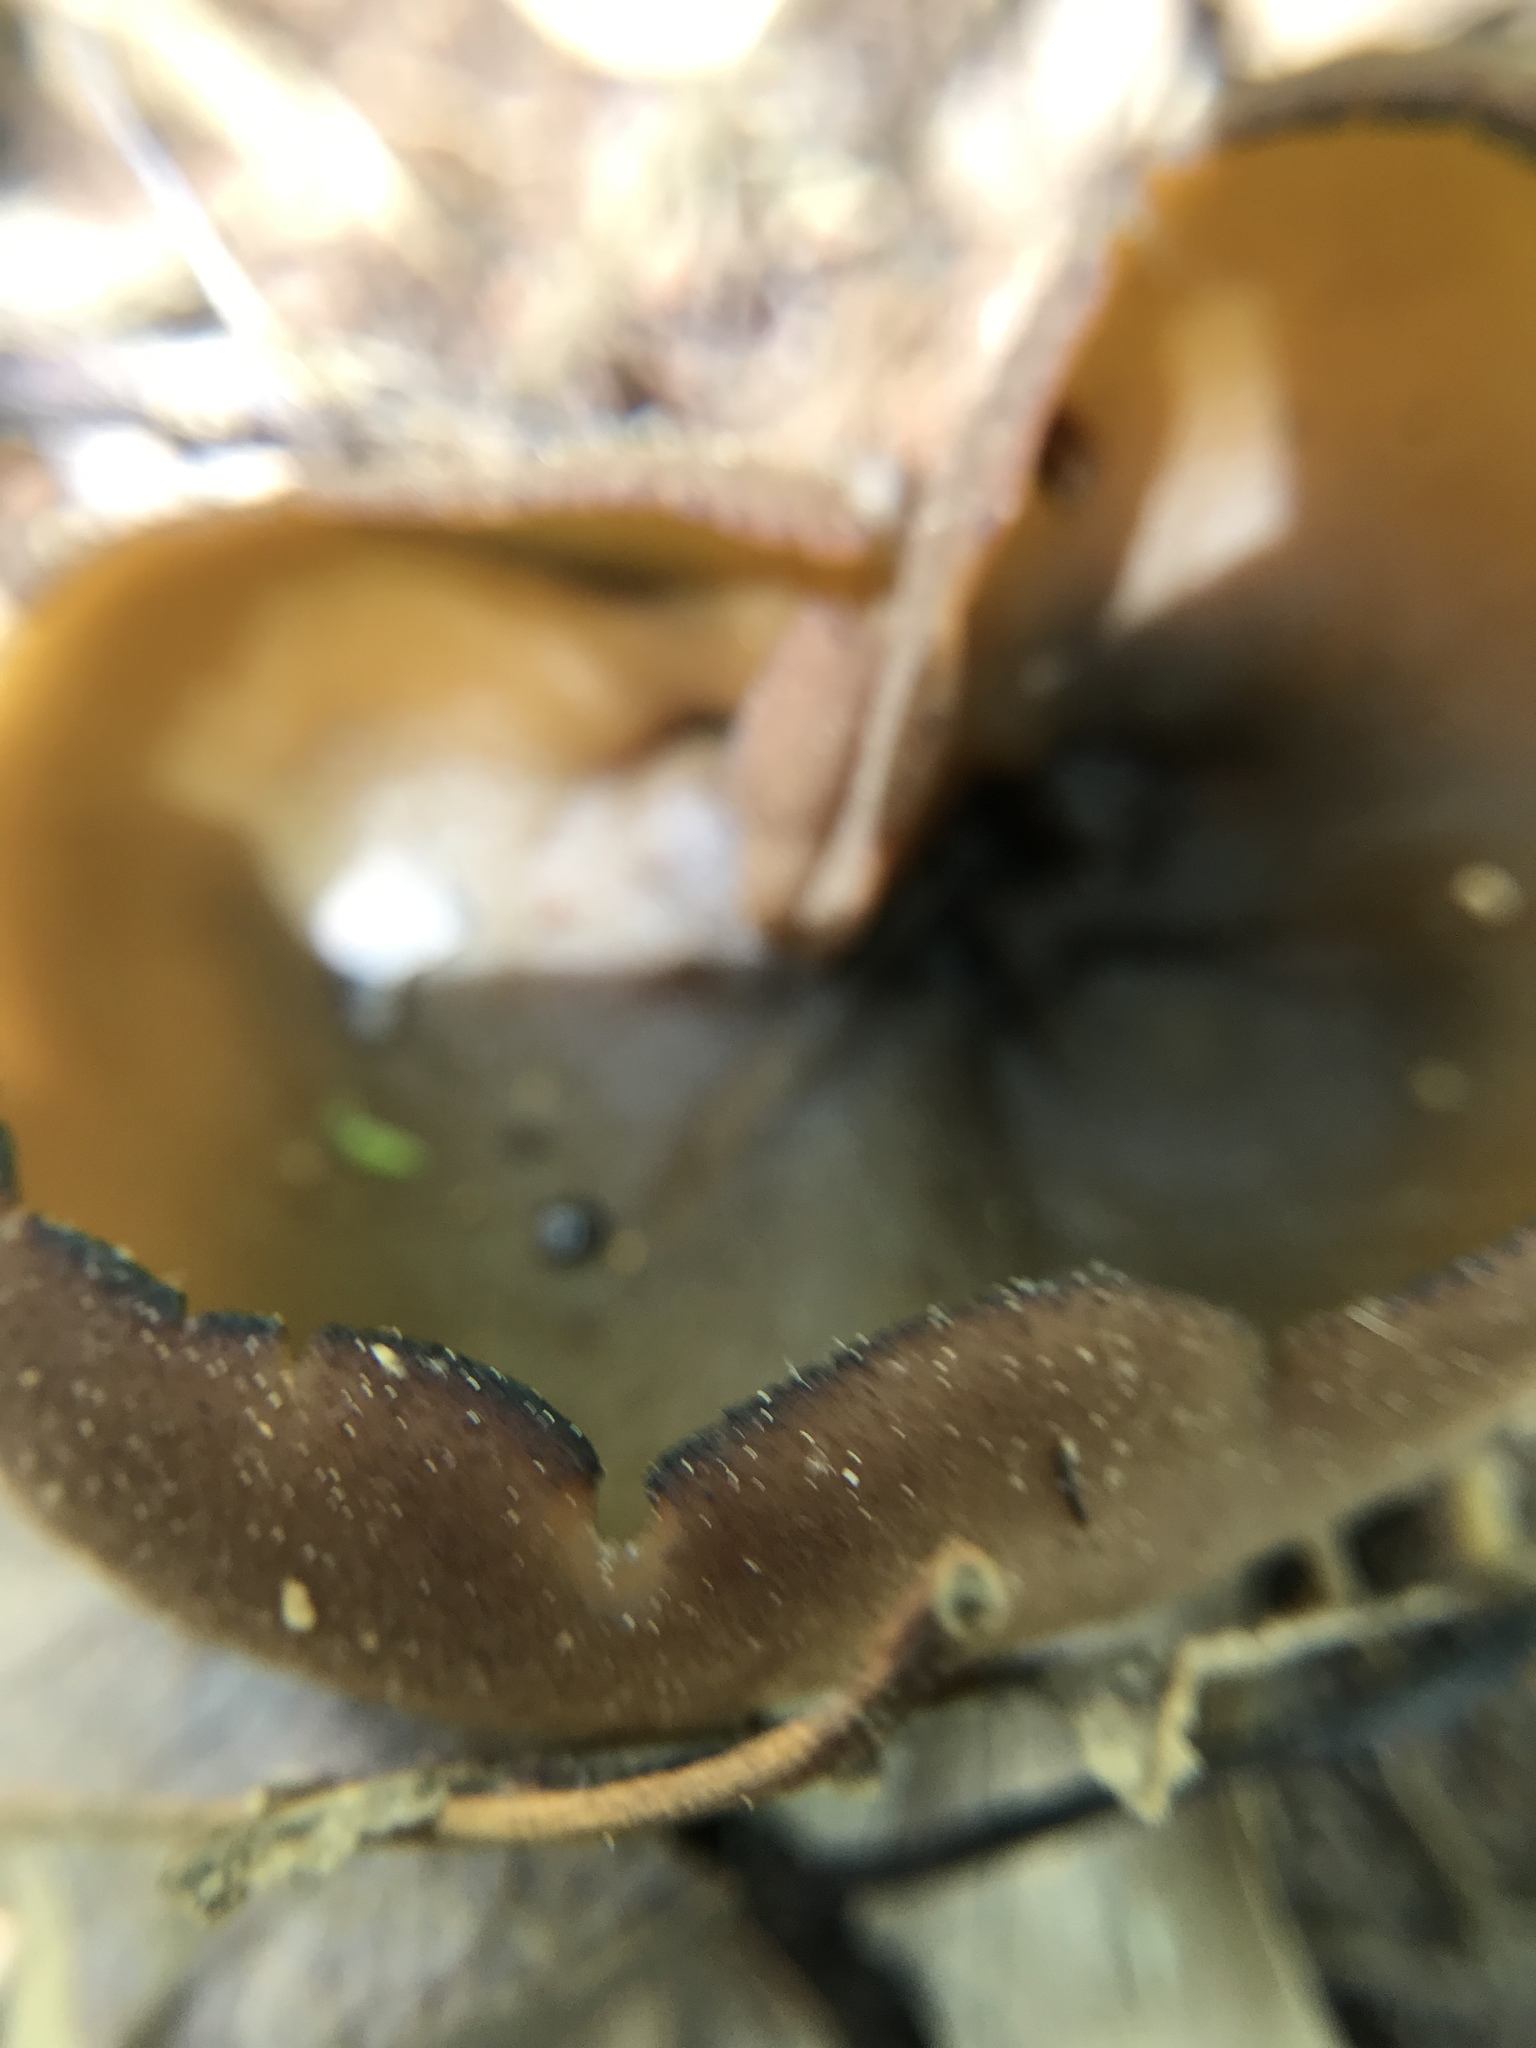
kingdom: Fungi
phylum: Ascomycota
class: Pezizomycetes
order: Pezizales
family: Pezizaceae
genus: Phylloscypha
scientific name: Phylloscypha phyllogena
